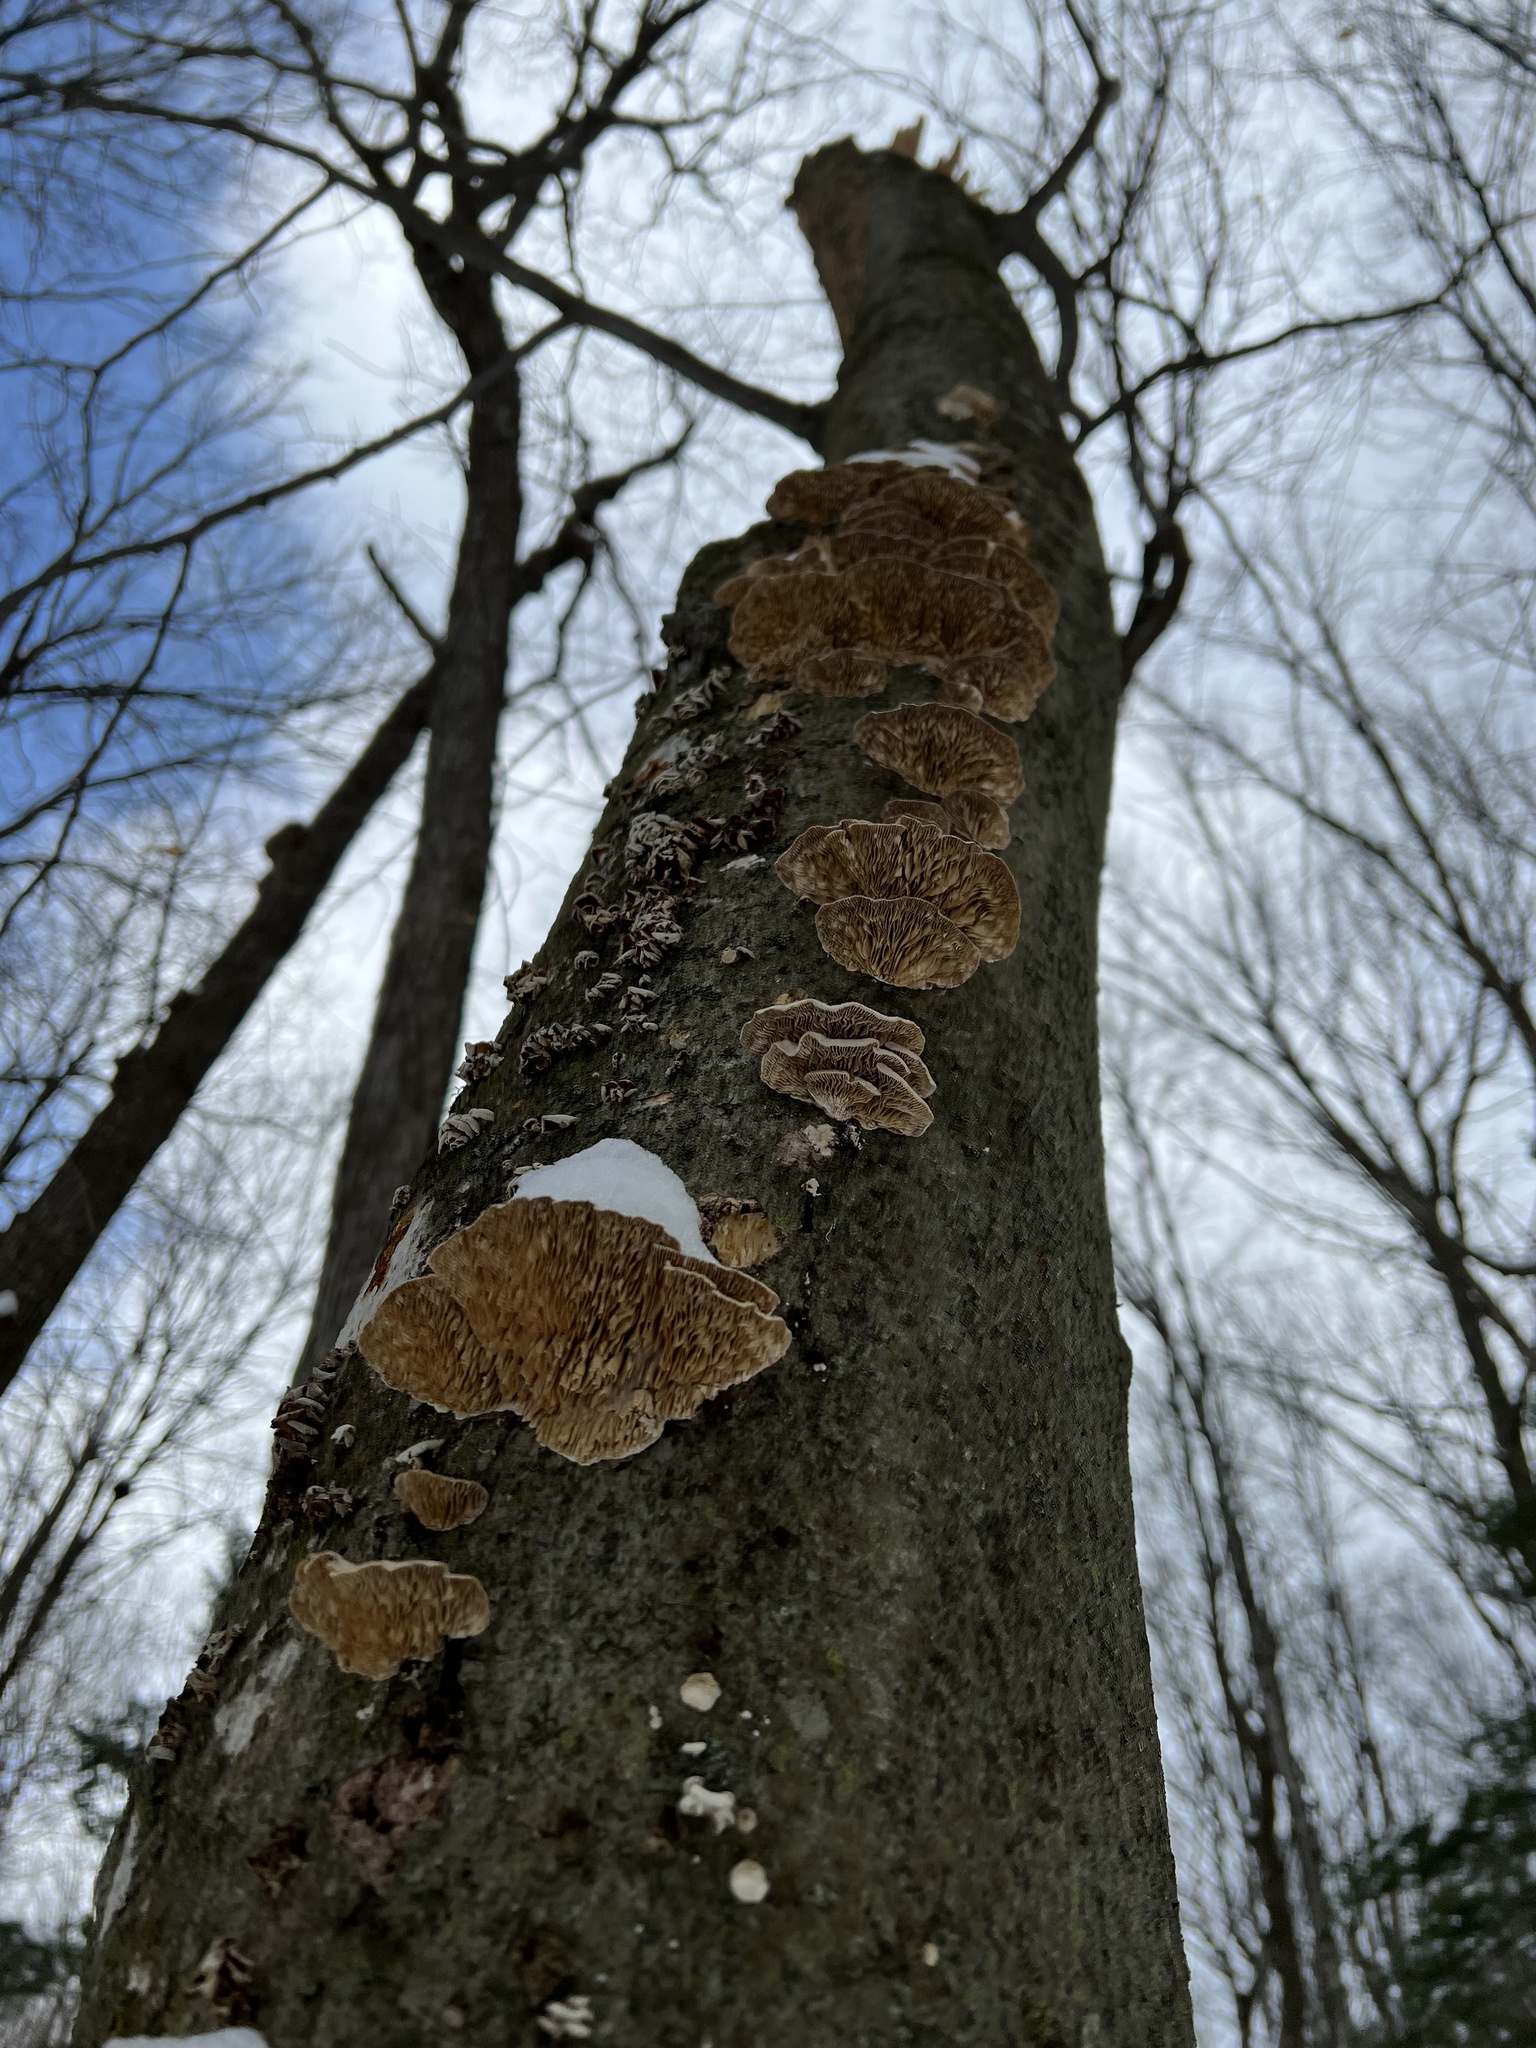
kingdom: Fungi
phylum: Basidiomycota
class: Agaricomycetes
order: Polyporales
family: Polyporaceae
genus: Lenzites
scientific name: Lenzites betulinus
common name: Birch mazegill
